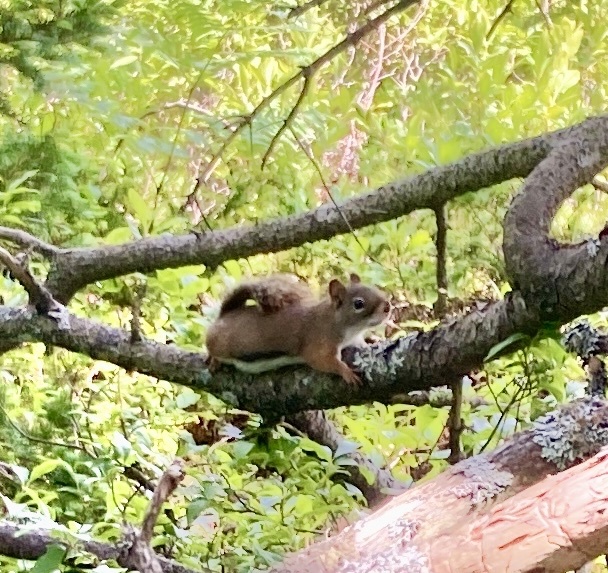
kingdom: Animalia
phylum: Chordata
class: Mammalia
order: Rodentia
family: Sciuridae
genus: Tamiasciurus
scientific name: Tamiasciurus hudsonicus
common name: Red squirrel
